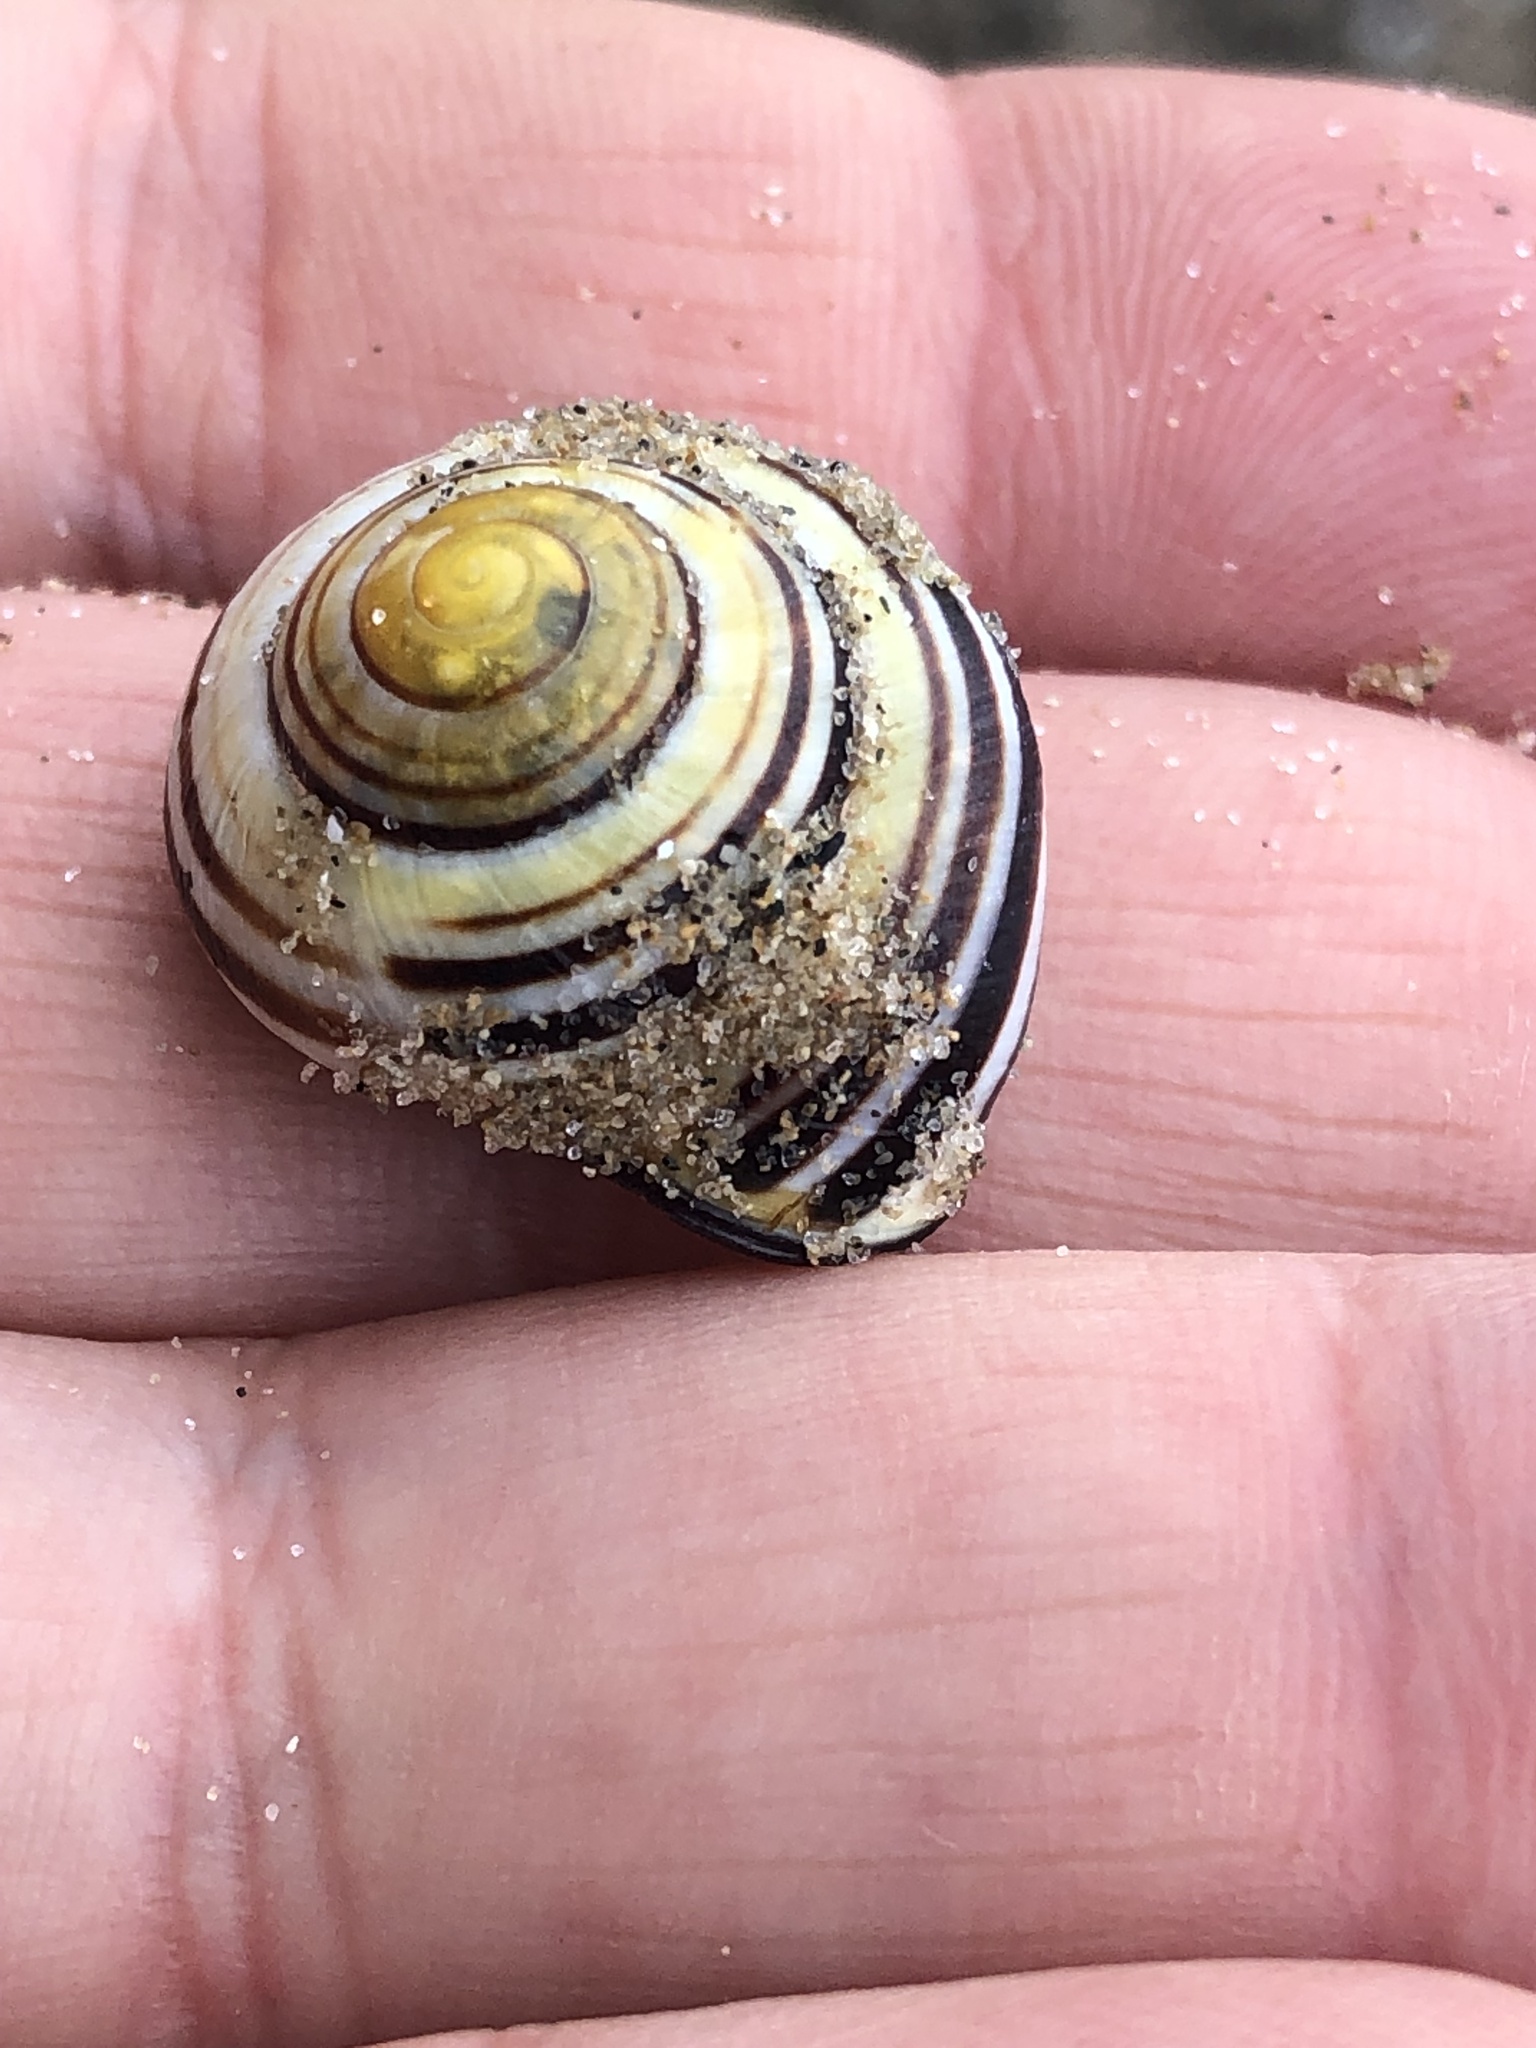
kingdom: Animalia
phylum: Mollusca
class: Gastropoda
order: Stylommatophora
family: Helicidae
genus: Cepaea
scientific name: Cepaea nemoralis
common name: Grovesnail
